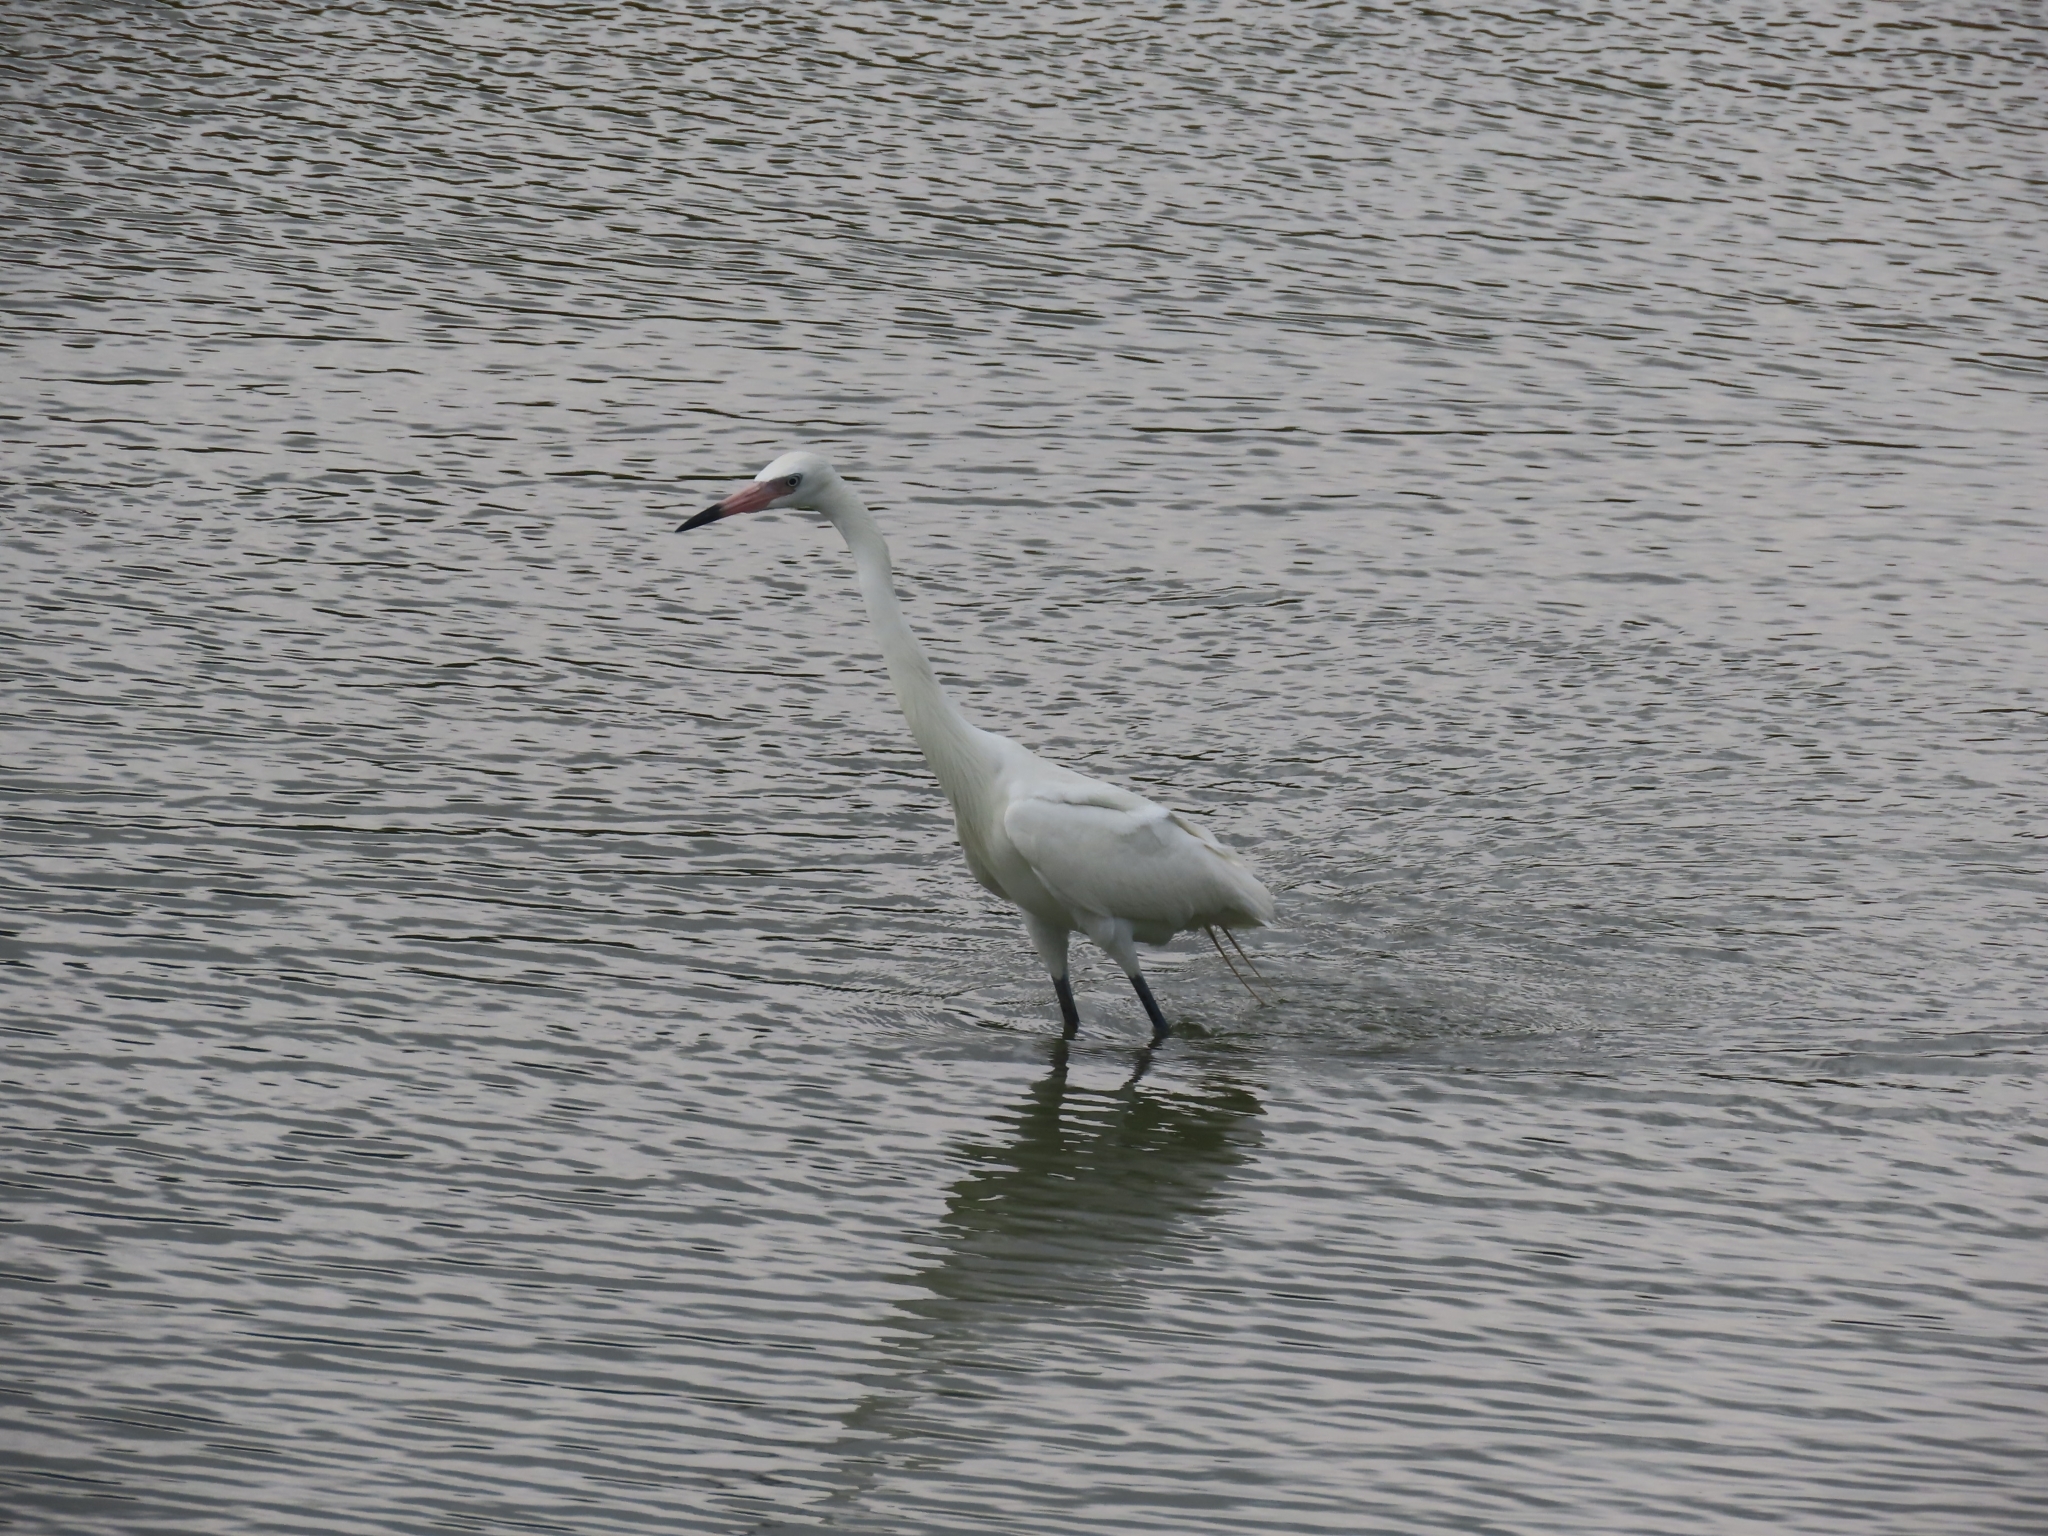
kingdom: Animalia
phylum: Chordata
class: Aves
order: Pelecaniformes
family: Ardeidae
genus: Egretta
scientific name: Egretta rufescens
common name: Reddish egret
